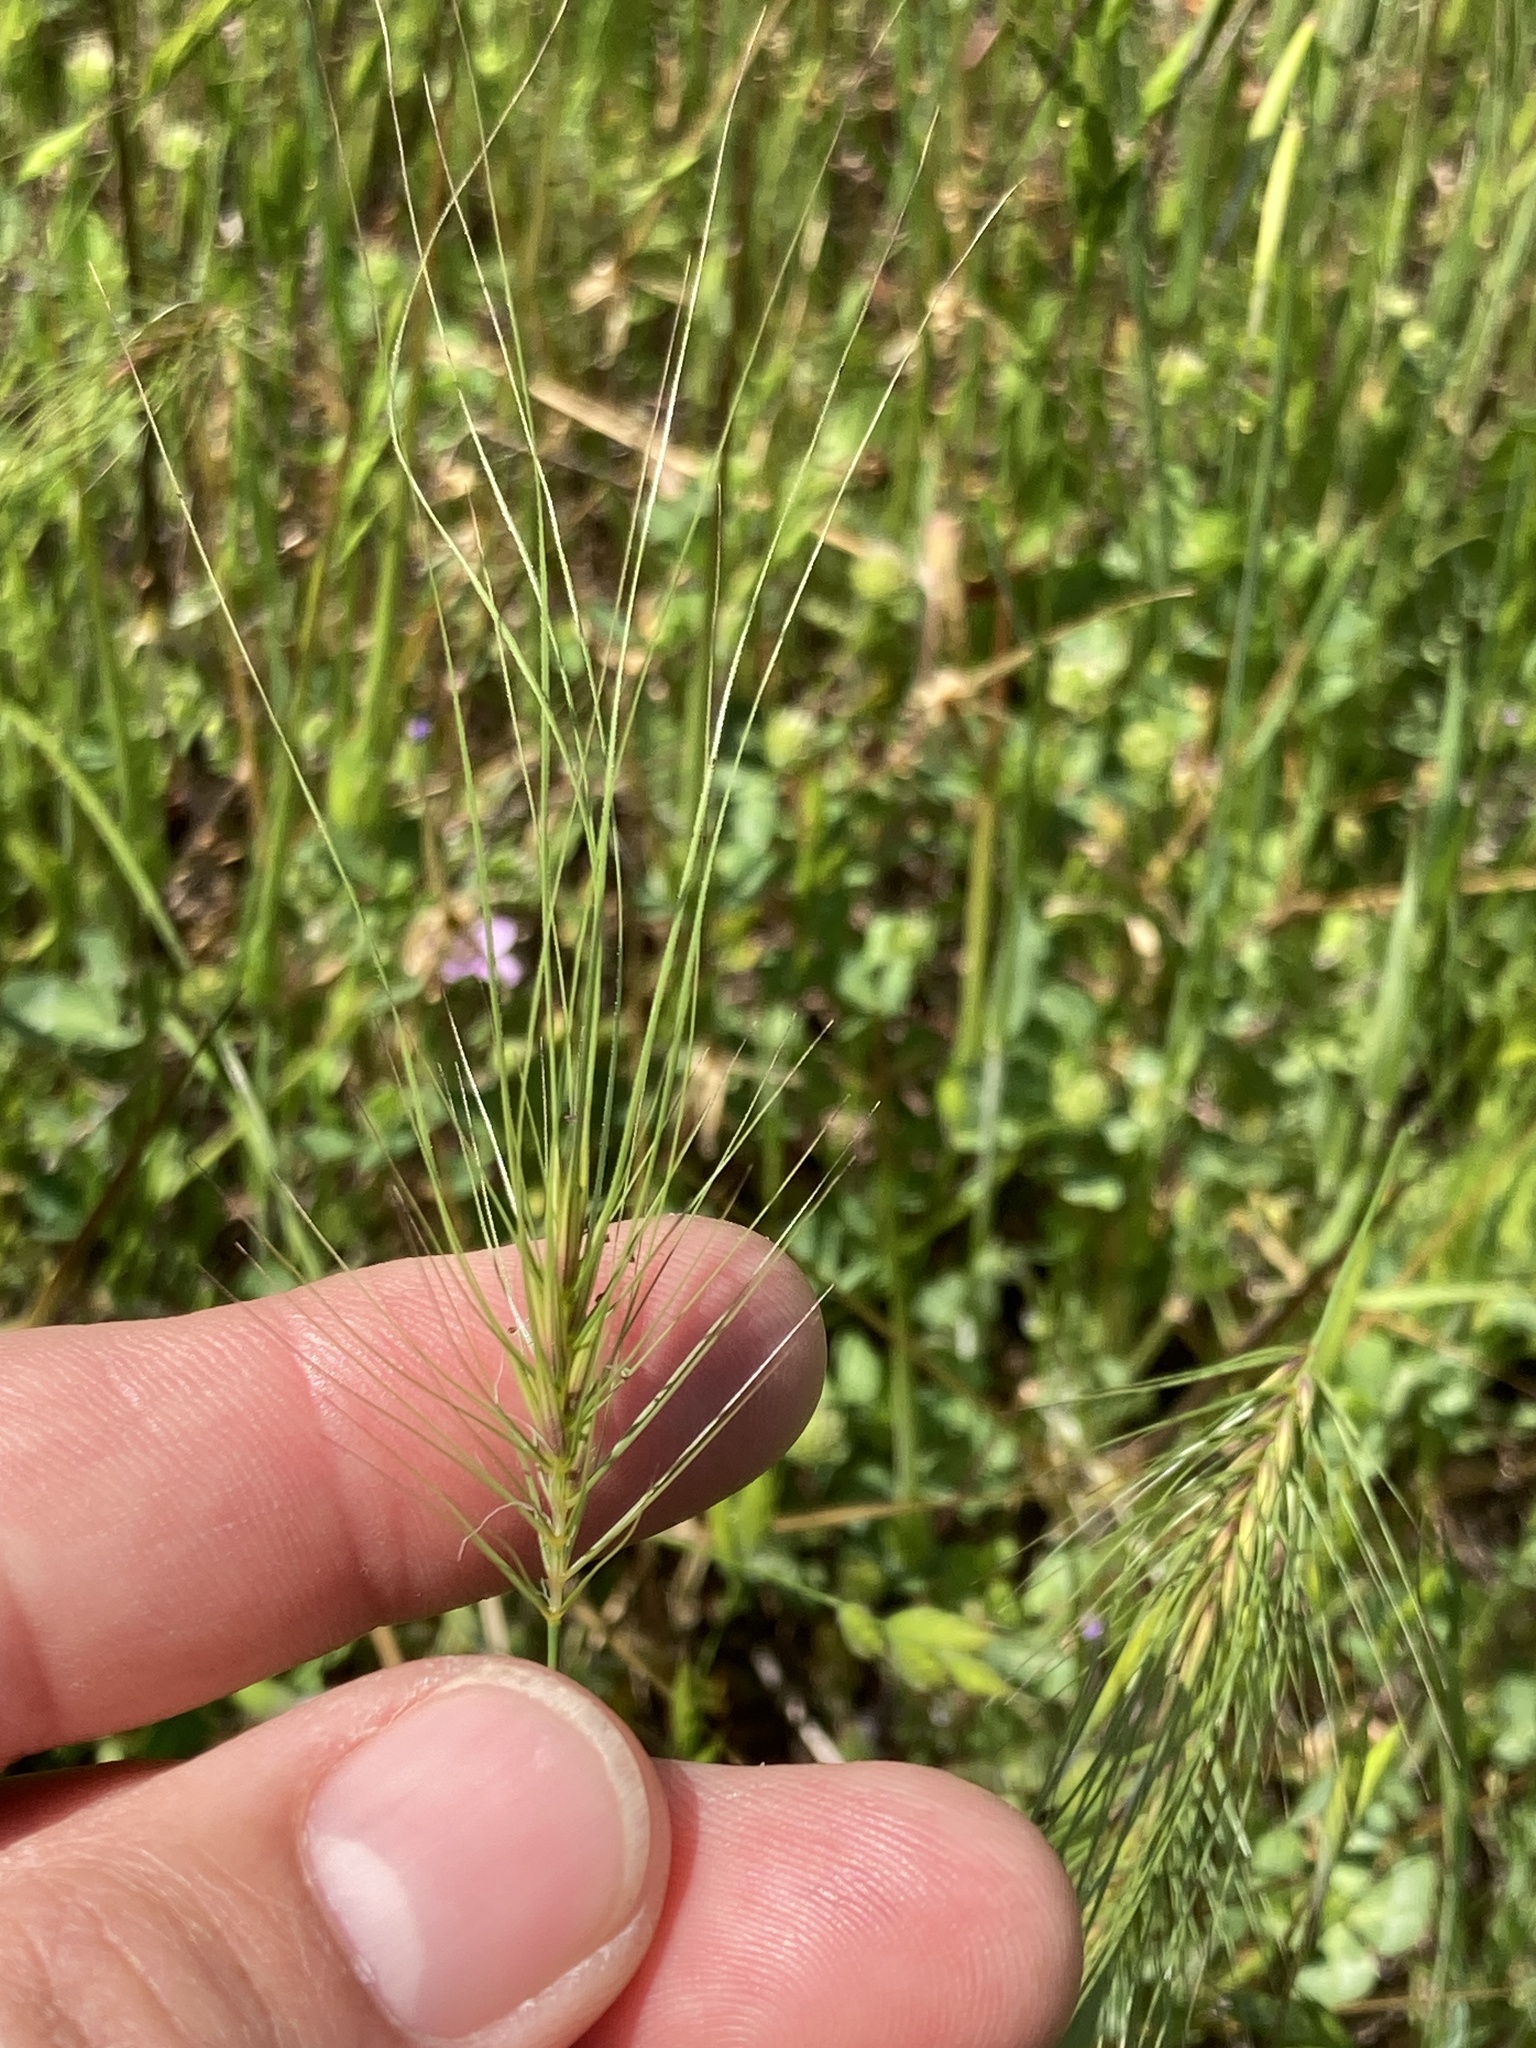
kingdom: Plantae
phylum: Tracheophyta
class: Liliopsida
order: Poales
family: Poaceae
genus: Taeniatherum
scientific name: Taeniatherum caput-medusae
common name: Medusahead
